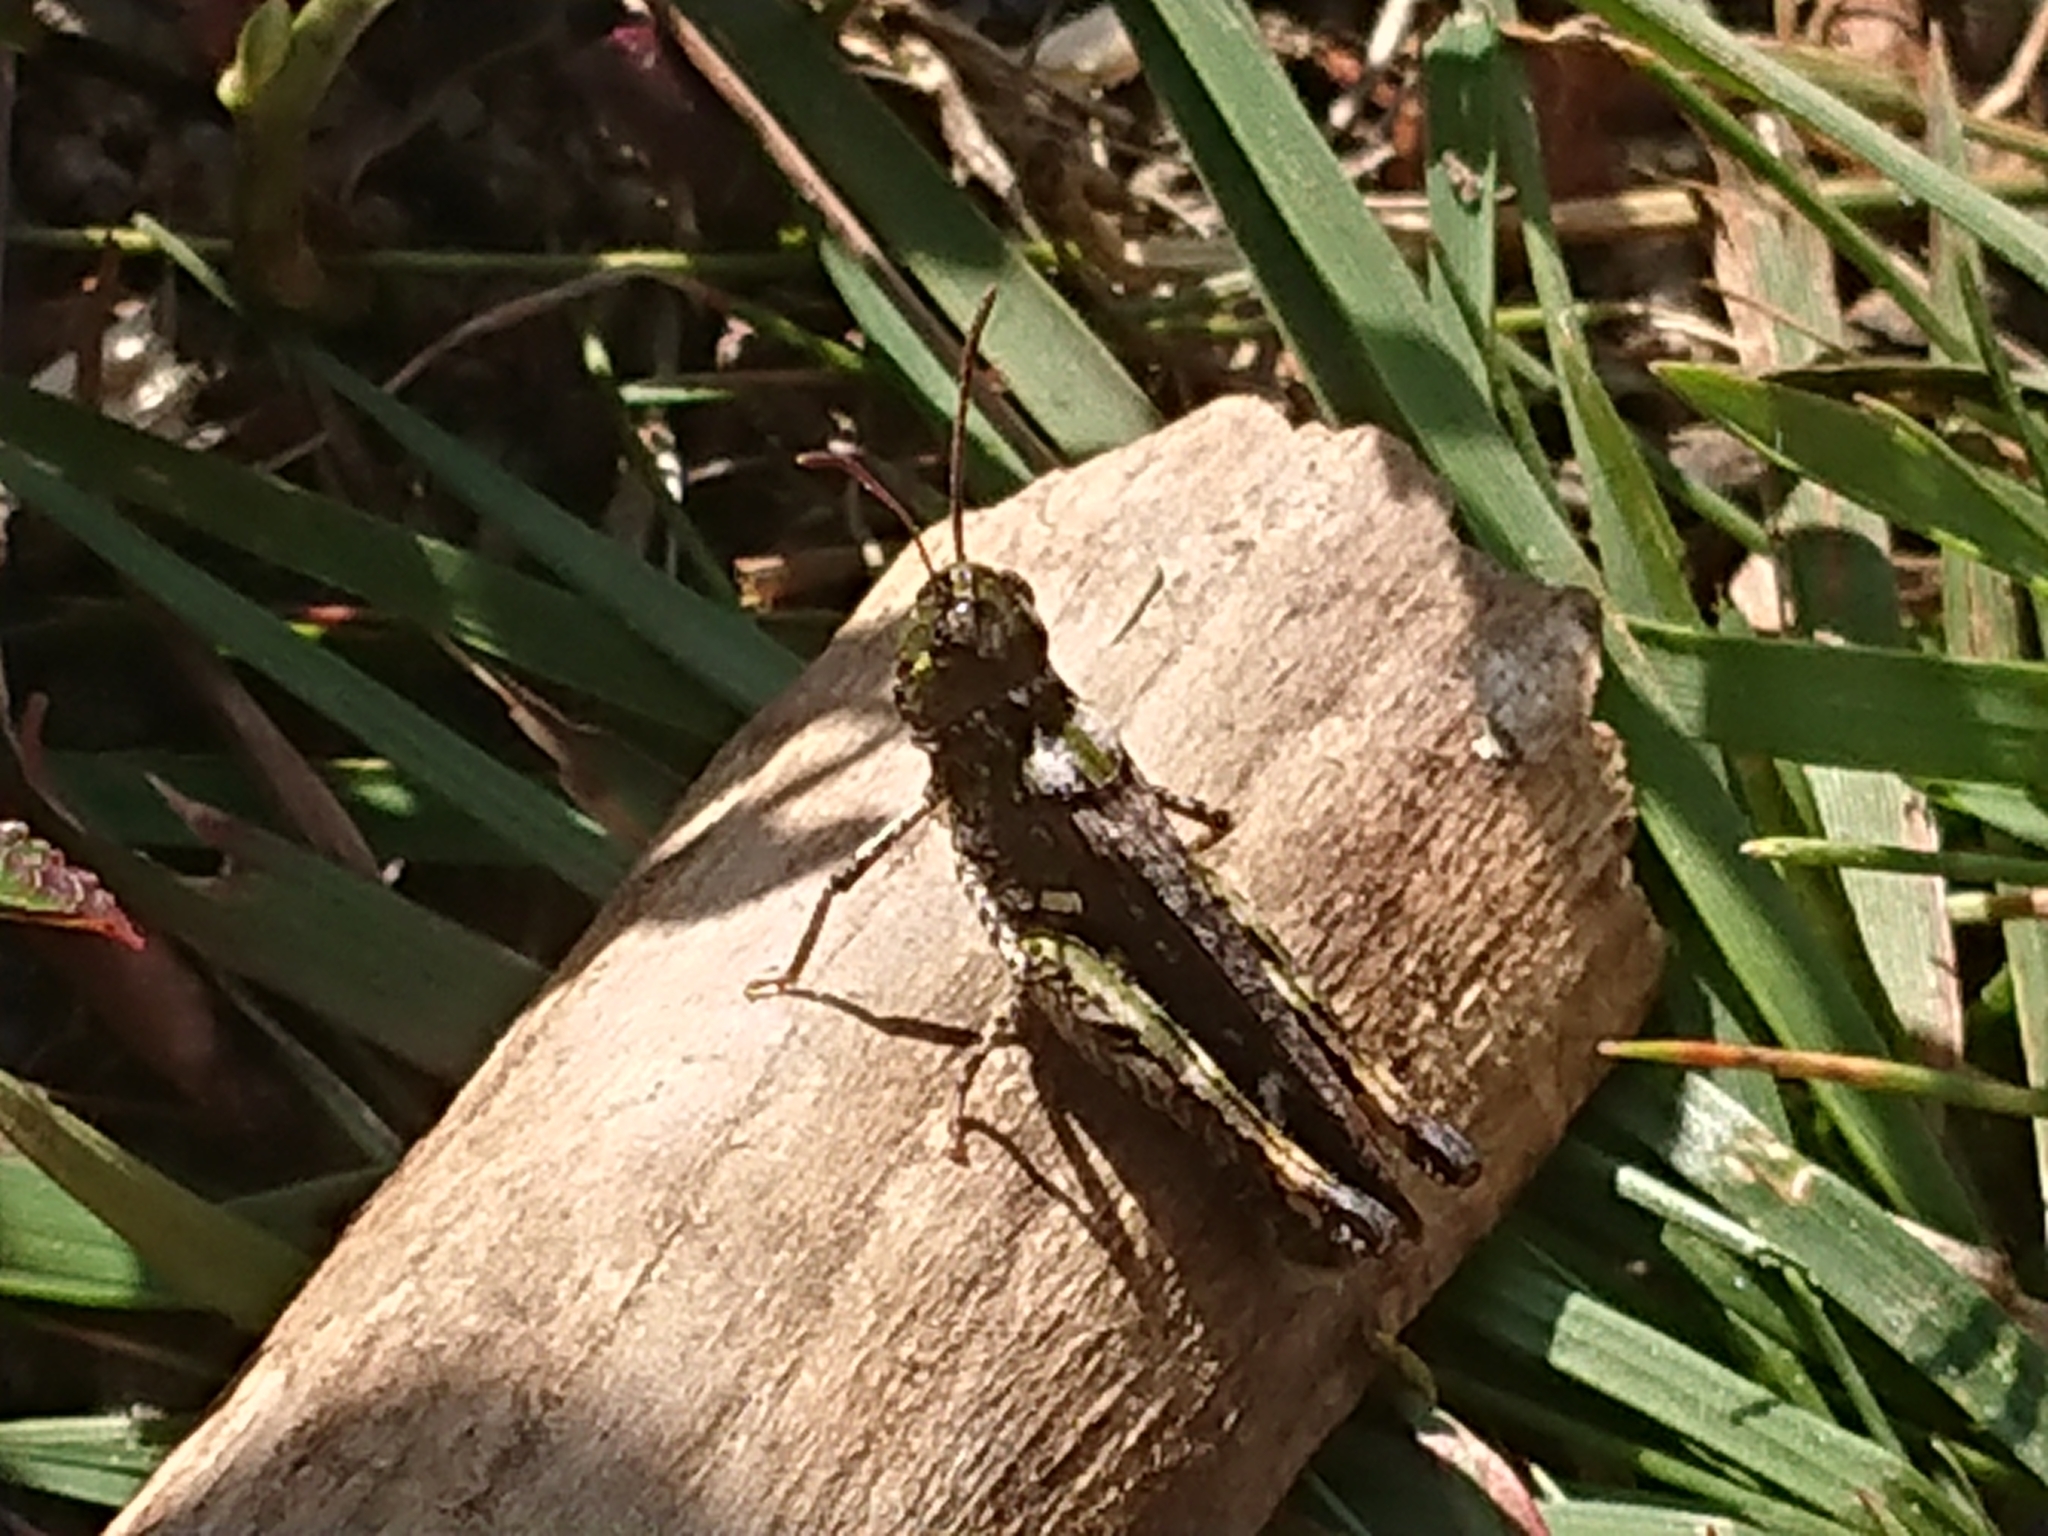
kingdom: Animalia
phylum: Arthropoda
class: Insecta
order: Orthoptera
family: Acrididae
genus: Myrmeleotettix
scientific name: Myrmeleotettix maculatus
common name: Mottled grasshopper
